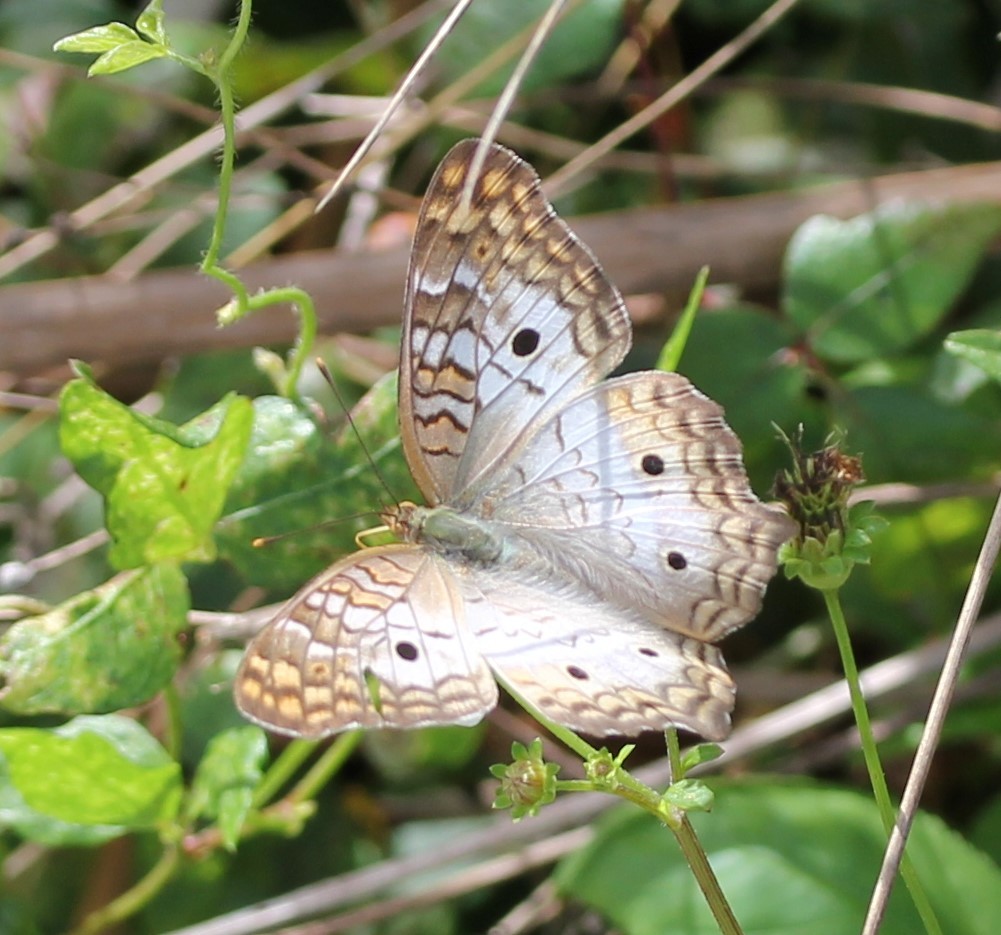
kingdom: Animalia
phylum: Arthropoda
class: Insecta
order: Lepidoptera
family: Nymphalidae
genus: Anartia
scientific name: Anartia jatrophae
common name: White peacock
